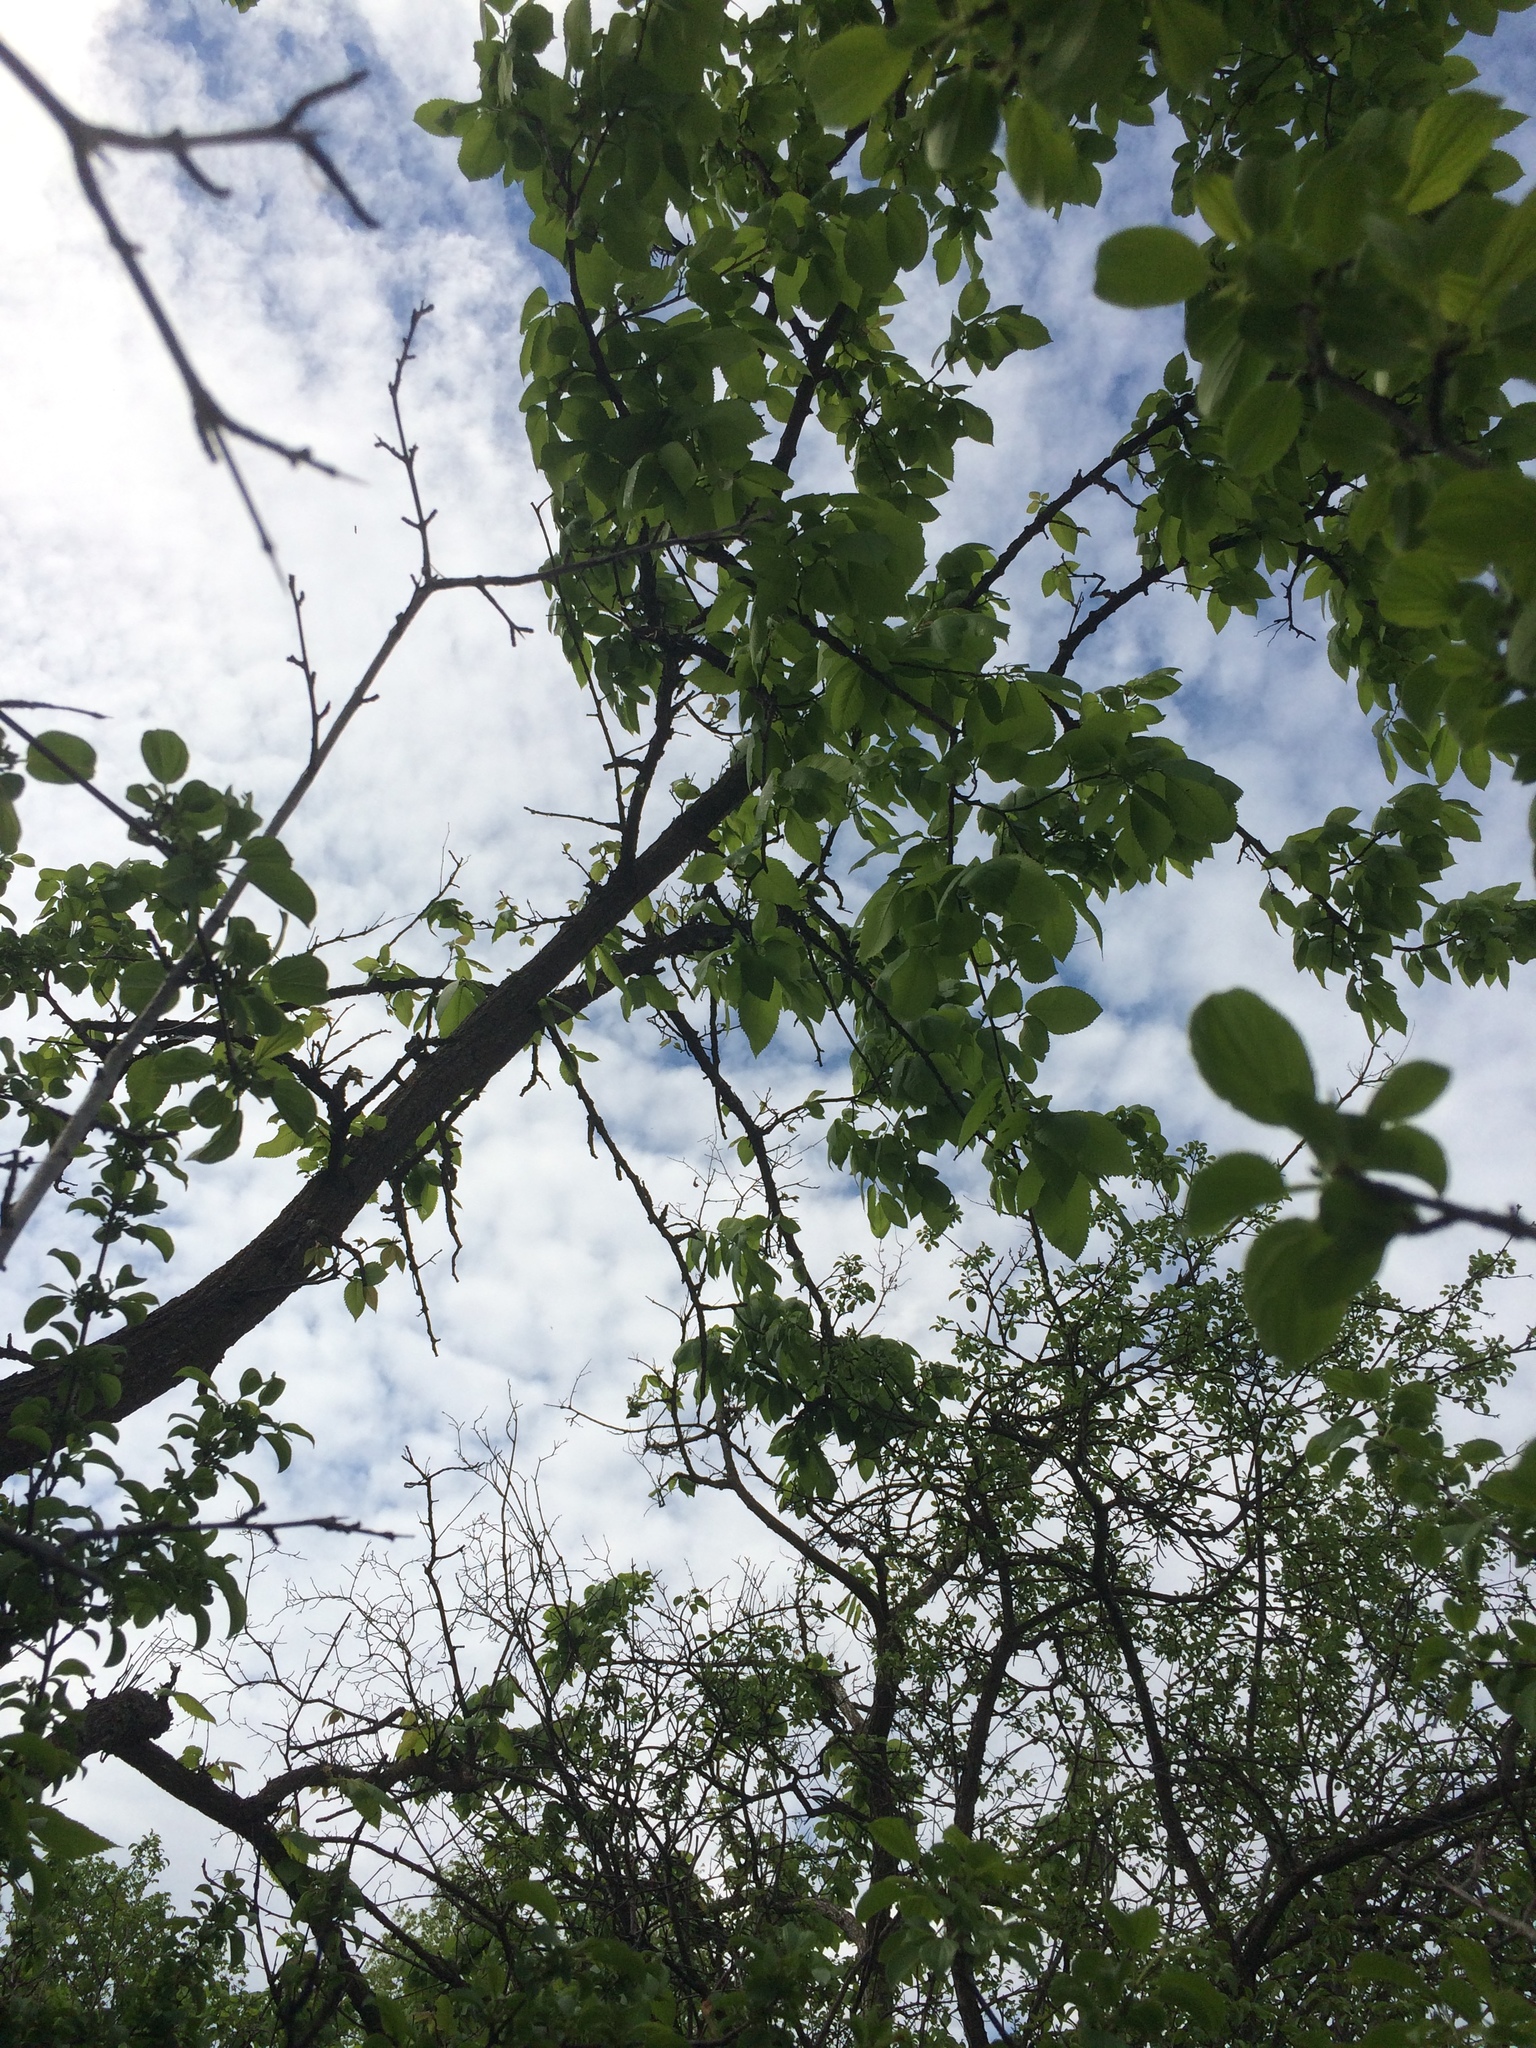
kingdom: Plantae
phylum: Tracheophyta
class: Magnoliopsida
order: Rosales
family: Ulmaceae
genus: Ulmus
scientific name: Ulmus thomasii
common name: Rock elm
